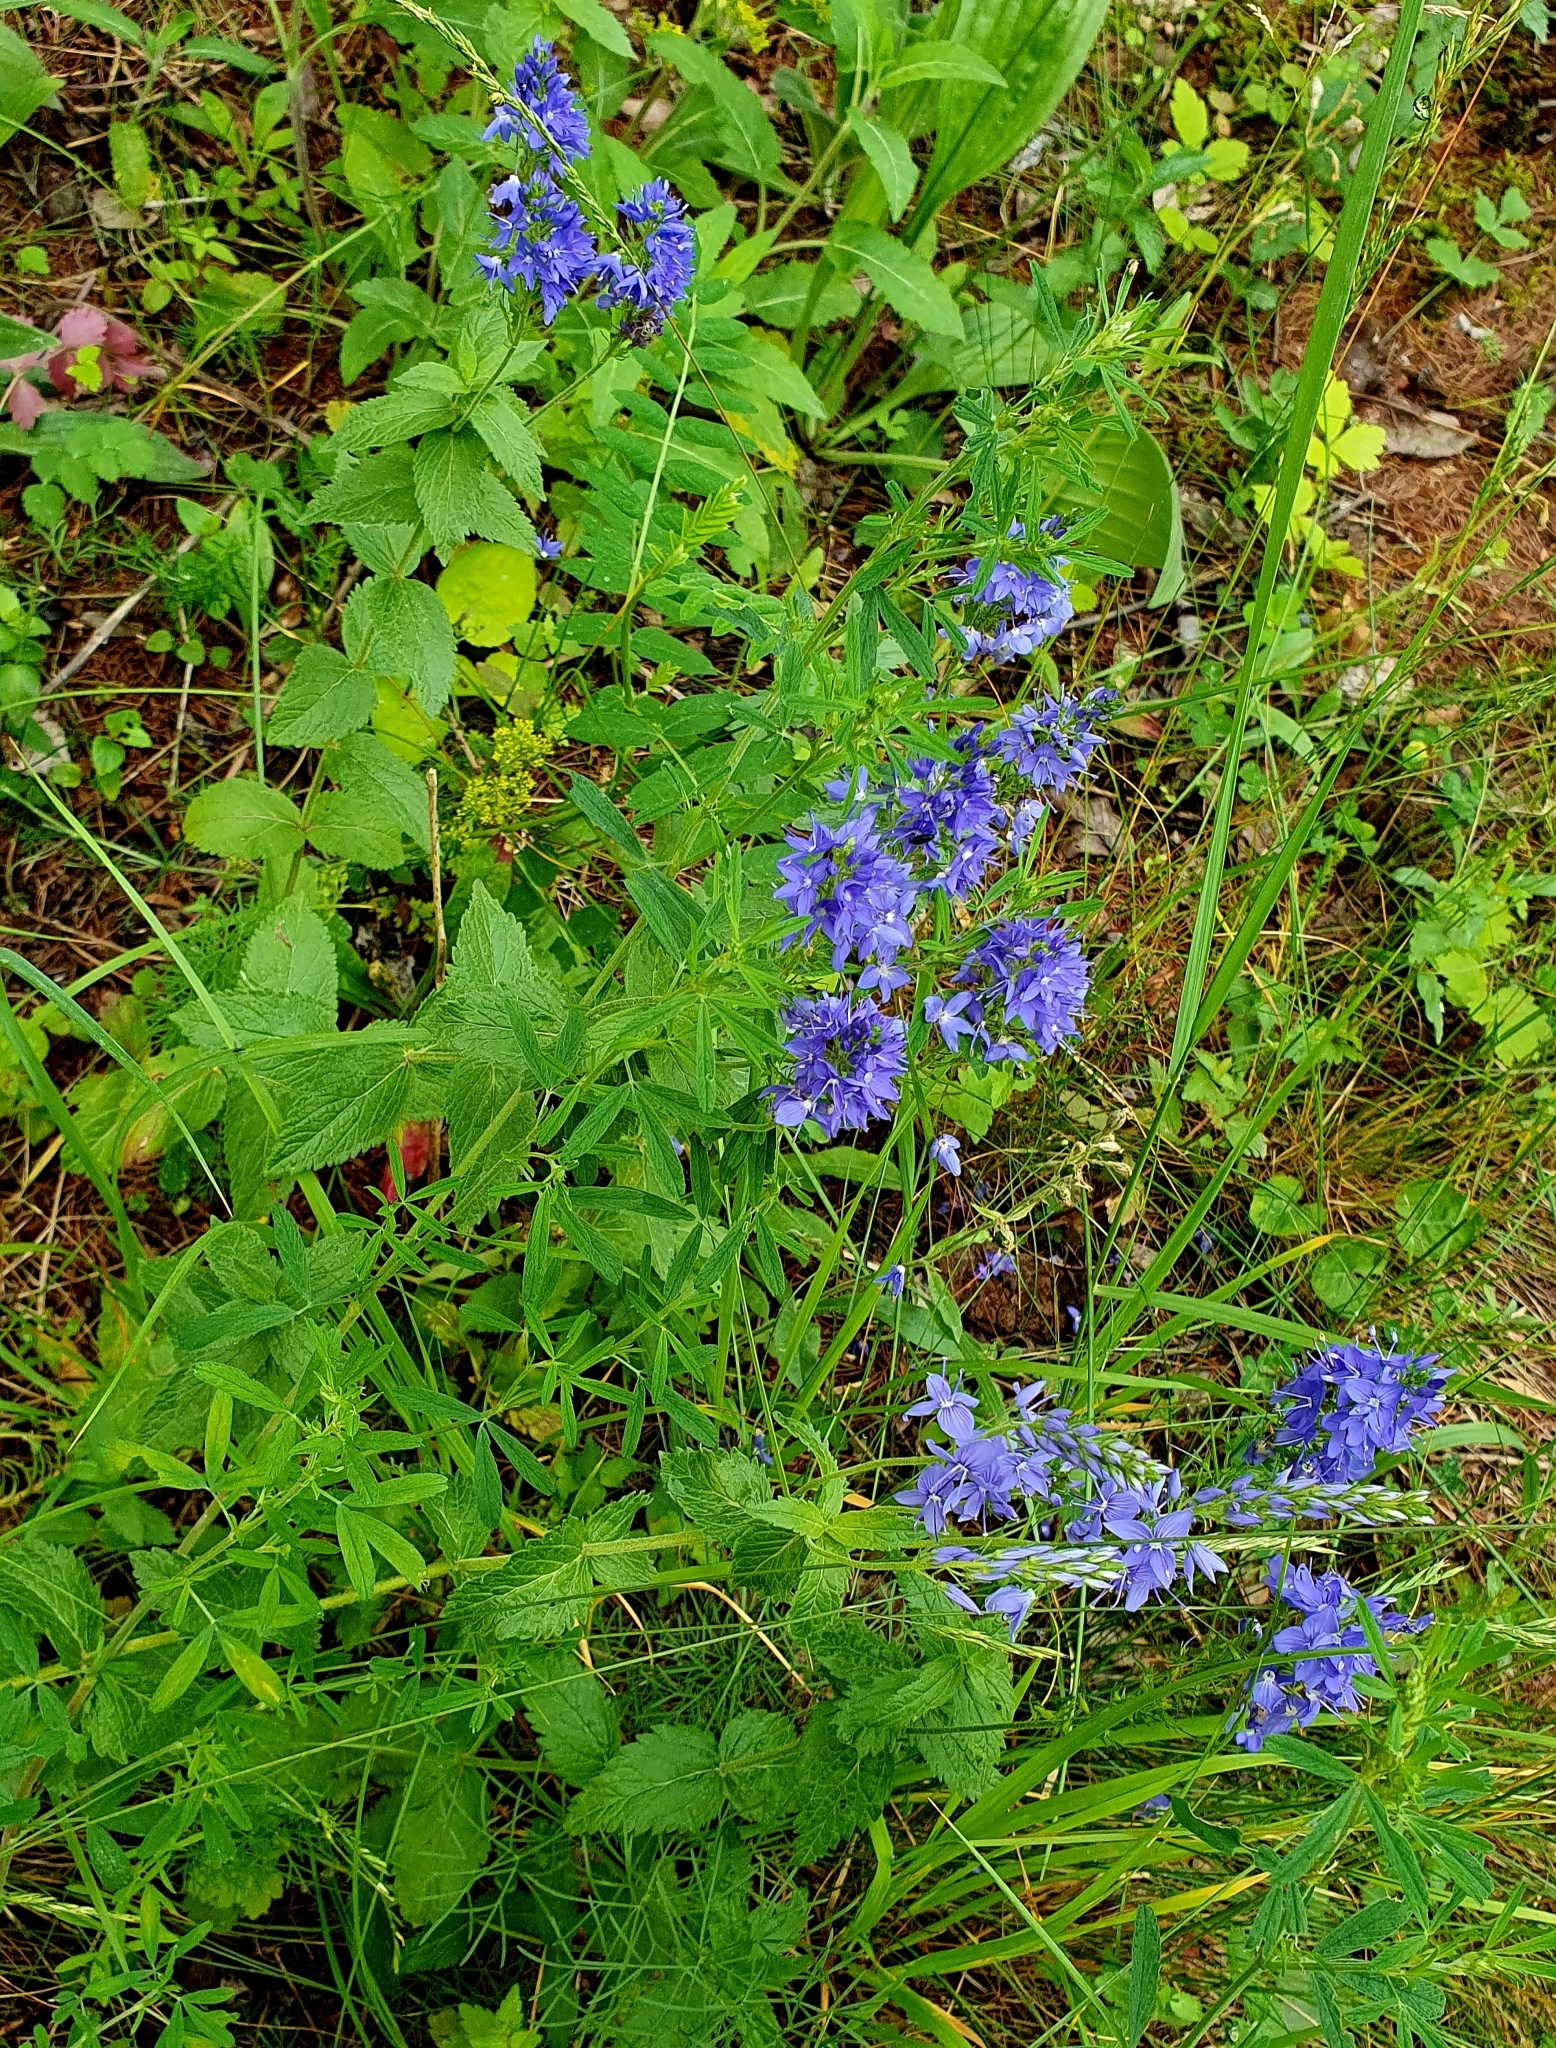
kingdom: Plantae
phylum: Tracheophyta
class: Magnoliopsida
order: Lamiales
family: Plantaginaceae
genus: Veronica
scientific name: Veronica teucrium
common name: Large speedwell
